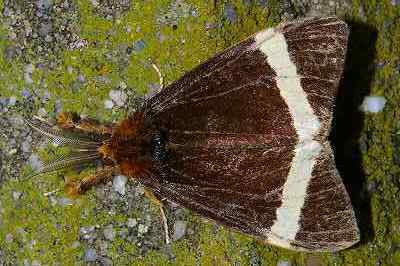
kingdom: Animalia
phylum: Arthropoda
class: Insecta
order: Lepidoptera
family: Erebidae
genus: Kuromondokuga
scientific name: Kuromondokuga albofascia
